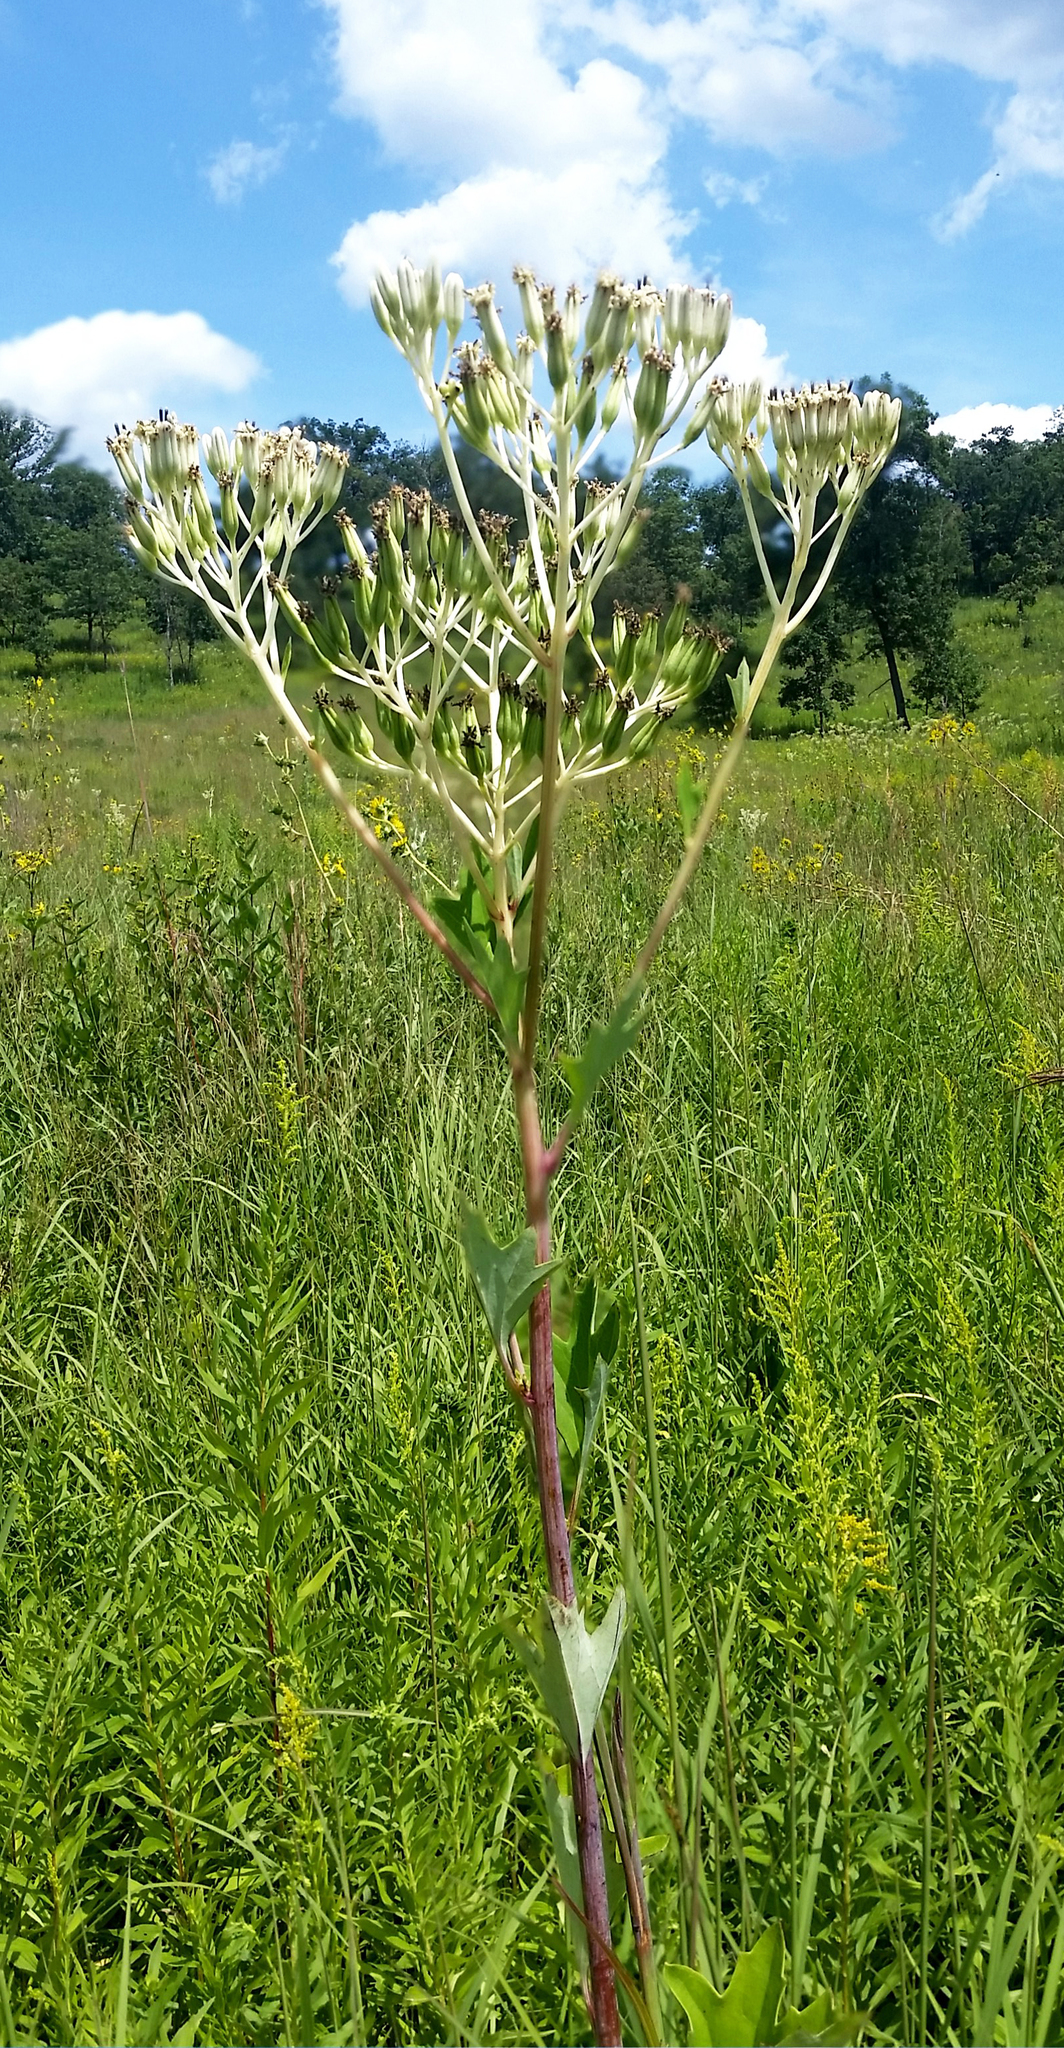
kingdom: Plantae
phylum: Tracheophyta
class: Magnoliopsida
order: Asterales
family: Asteraceae
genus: Arnoglossum
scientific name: Arnoglossum atriplicifolium
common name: Pale indian-plantain
